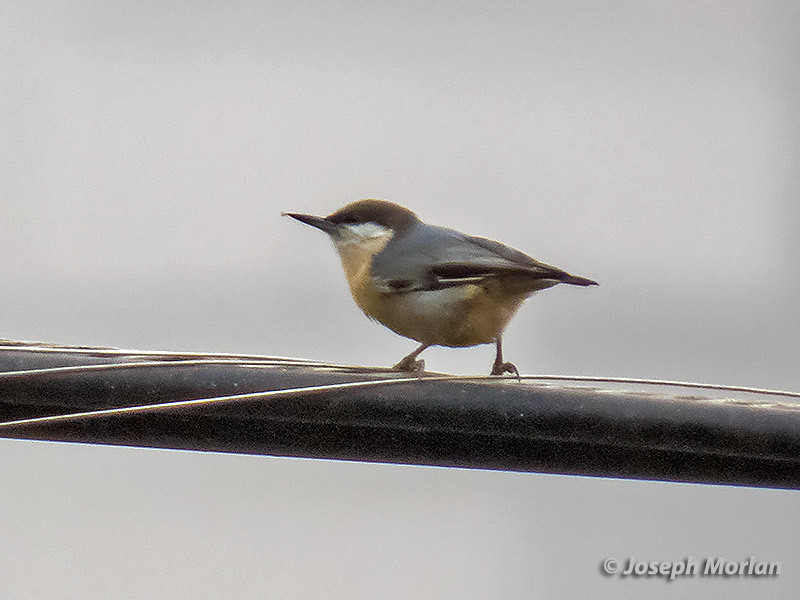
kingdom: Animalia
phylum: Chordata
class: Aves
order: Passeriformes
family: Sittidae
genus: Sitta
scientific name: Sitta pygmaea
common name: Pygmy nuthatch
